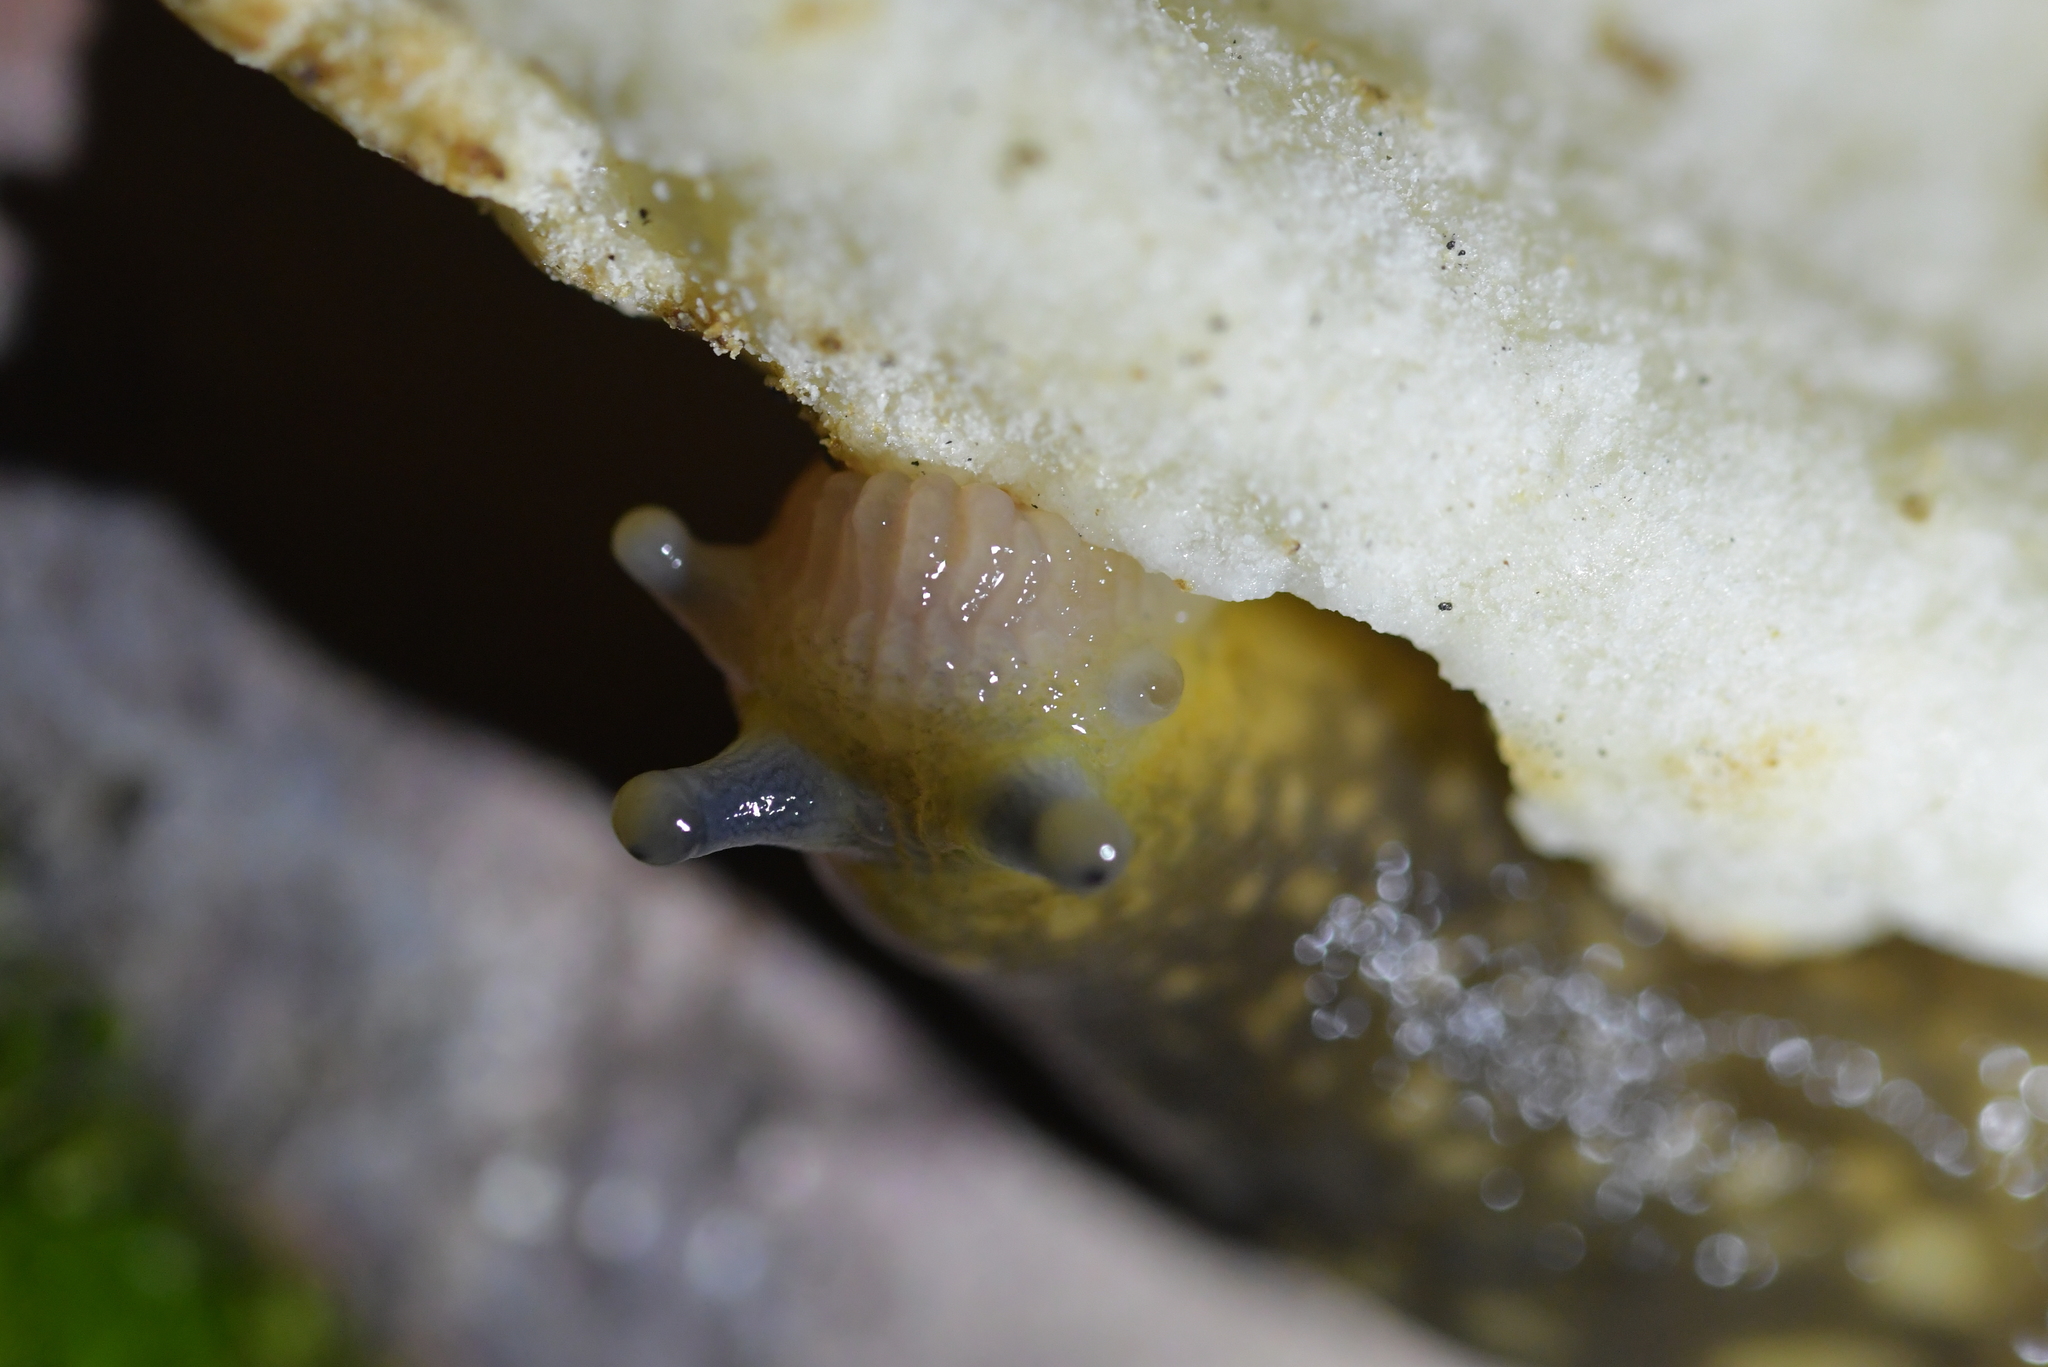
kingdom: Animalia
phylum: Mollusca
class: Gastropoda
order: Stylommatophora
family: Limacidae
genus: Limacus
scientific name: Limacus flavus
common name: Yellow gardenslug
